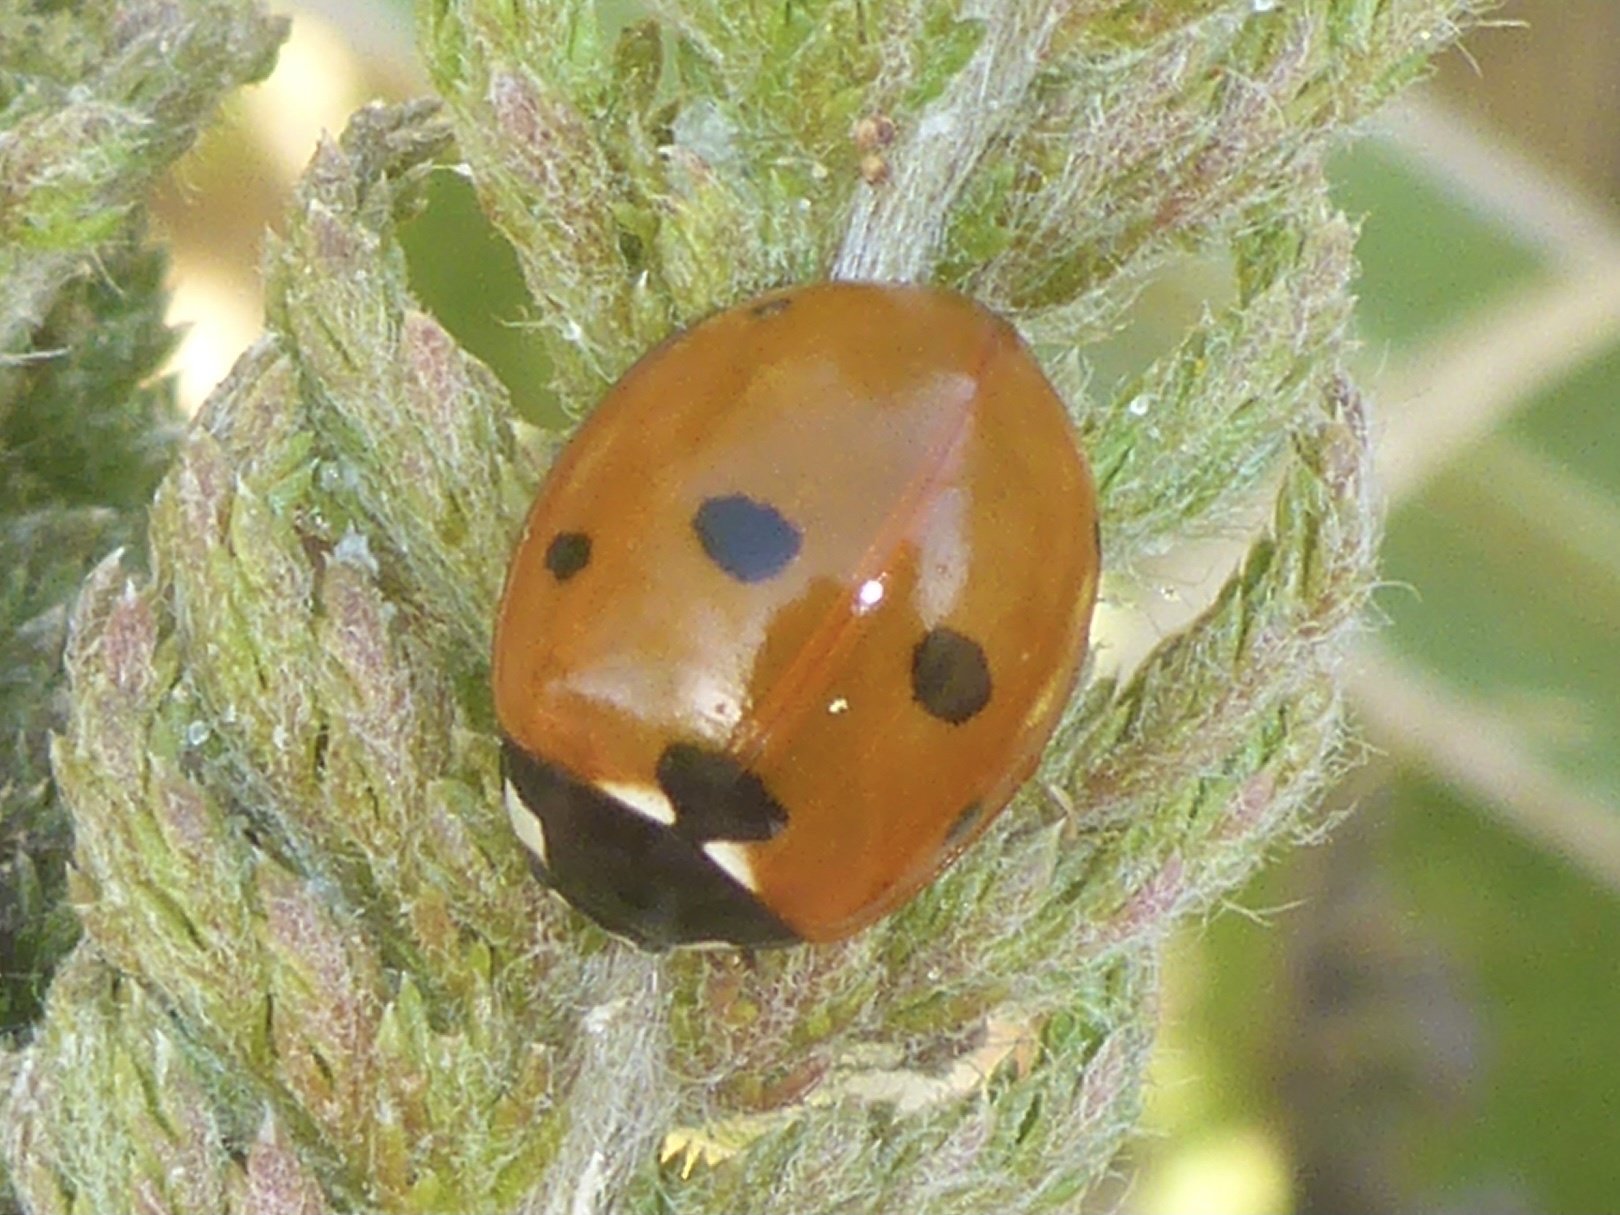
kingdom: Animalia
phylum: Arthropoda
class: Insecta
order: Coleoptera
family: Coccinellidae
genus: Coccinella
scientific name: Coccinella septempunctata
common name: Sevenspotted lady beetle
